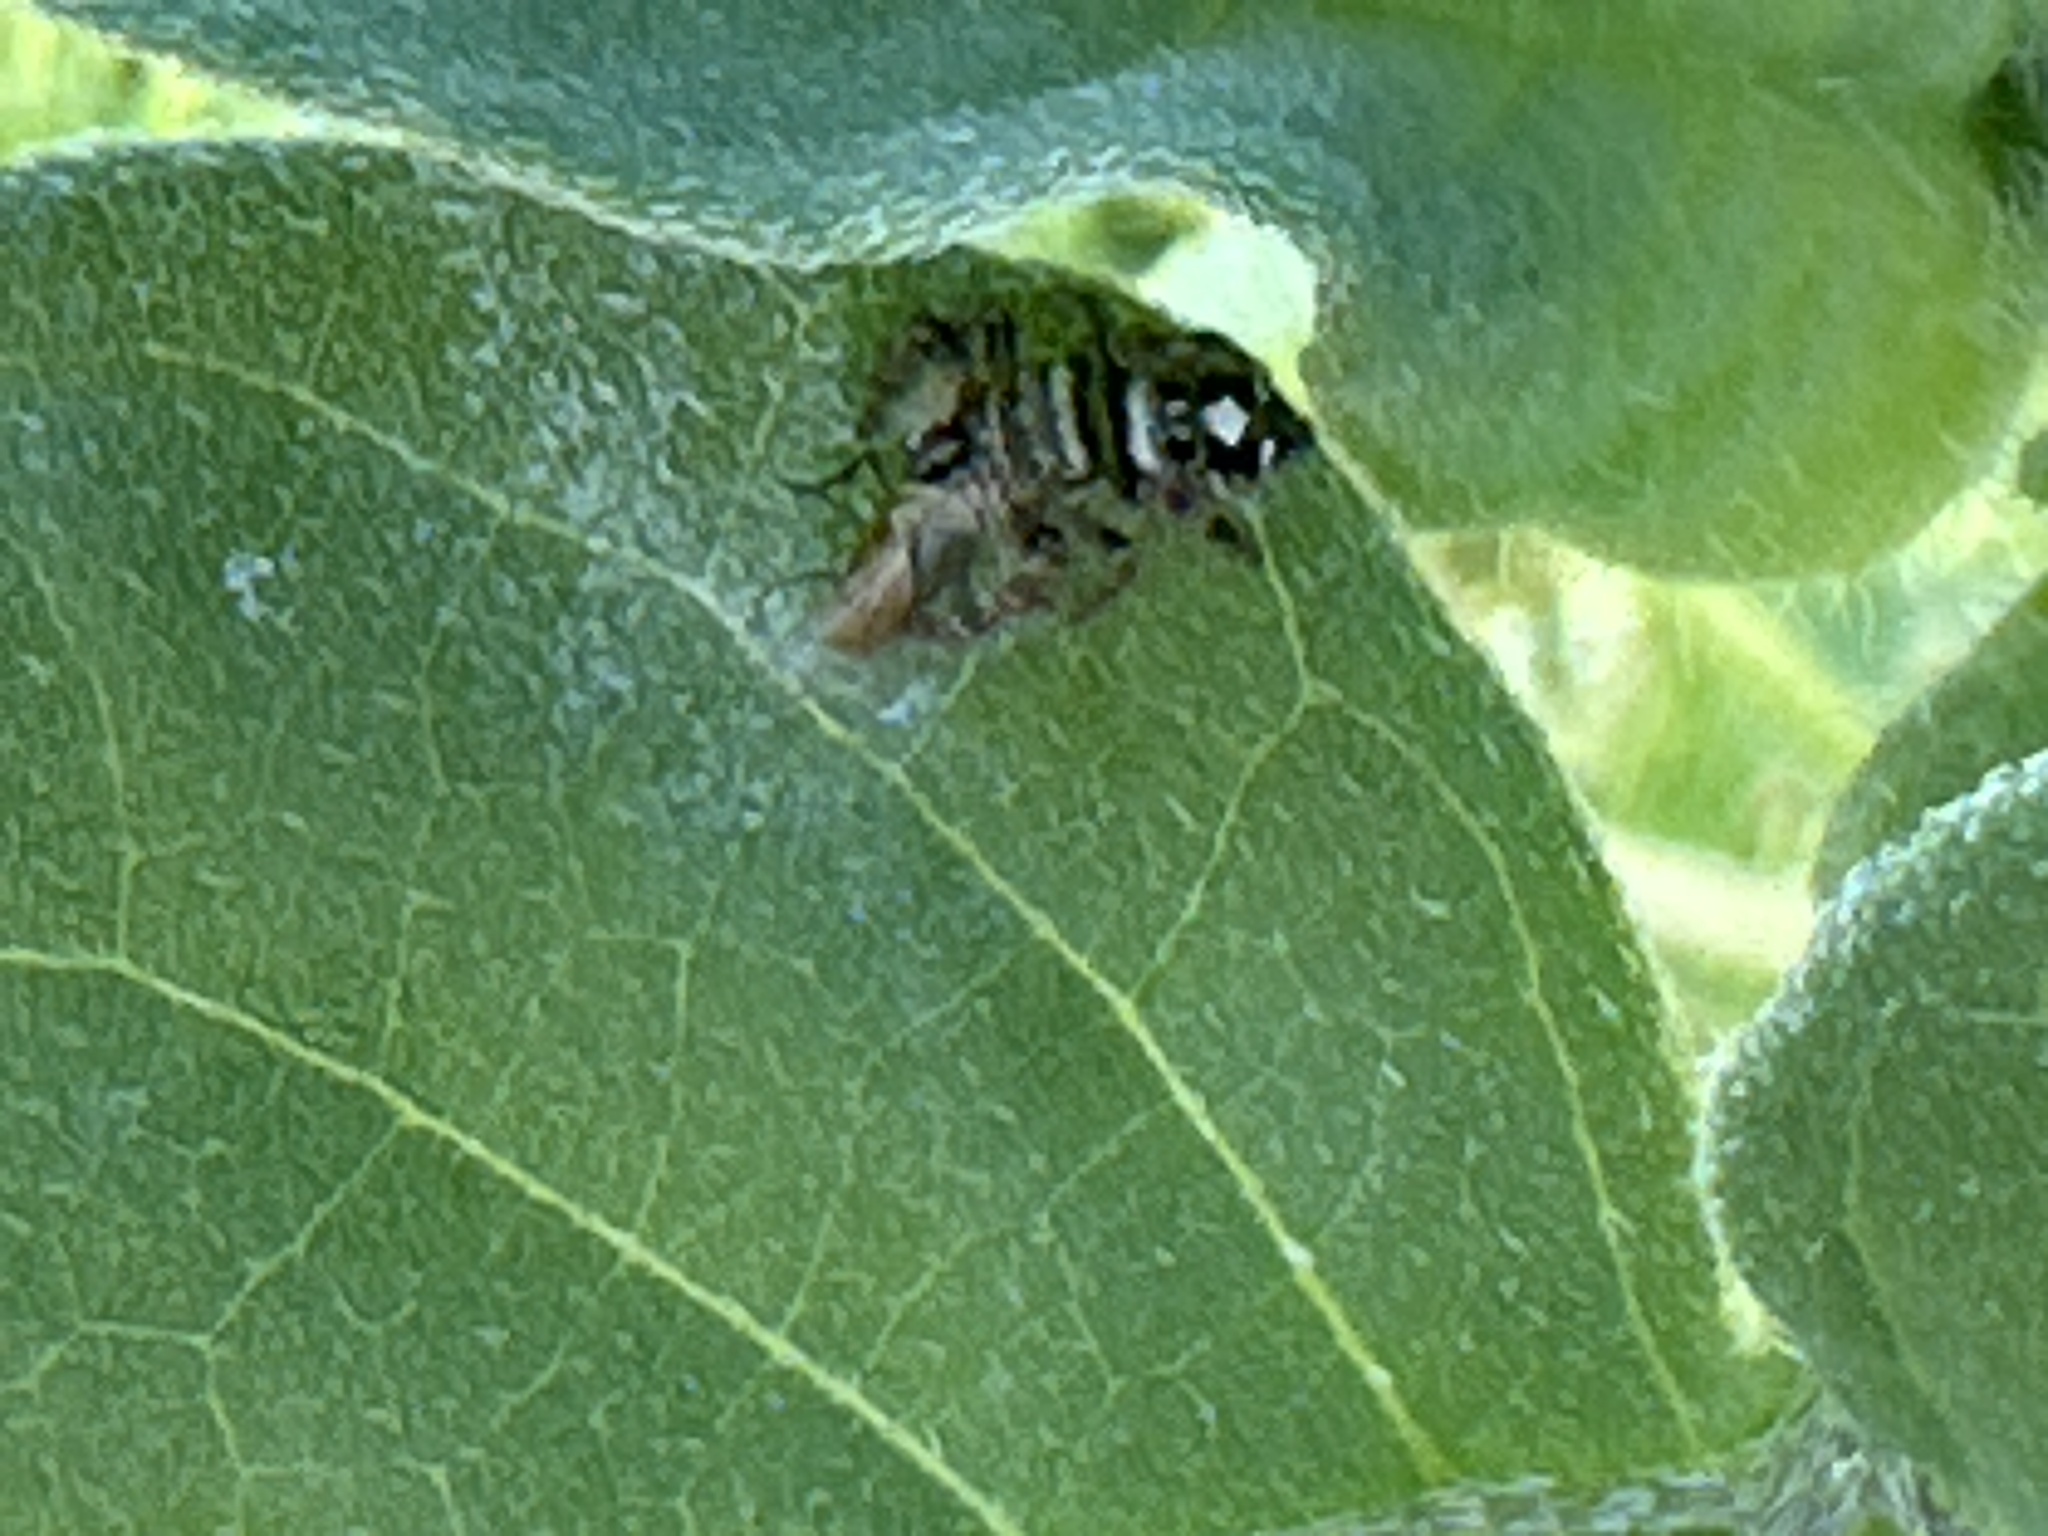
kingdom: Animalia
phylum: Arthropoda
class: Arachnida
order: Araneae
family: Salticidae
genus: Phidippus
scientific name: Phidippus audax
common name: Bold jumper
